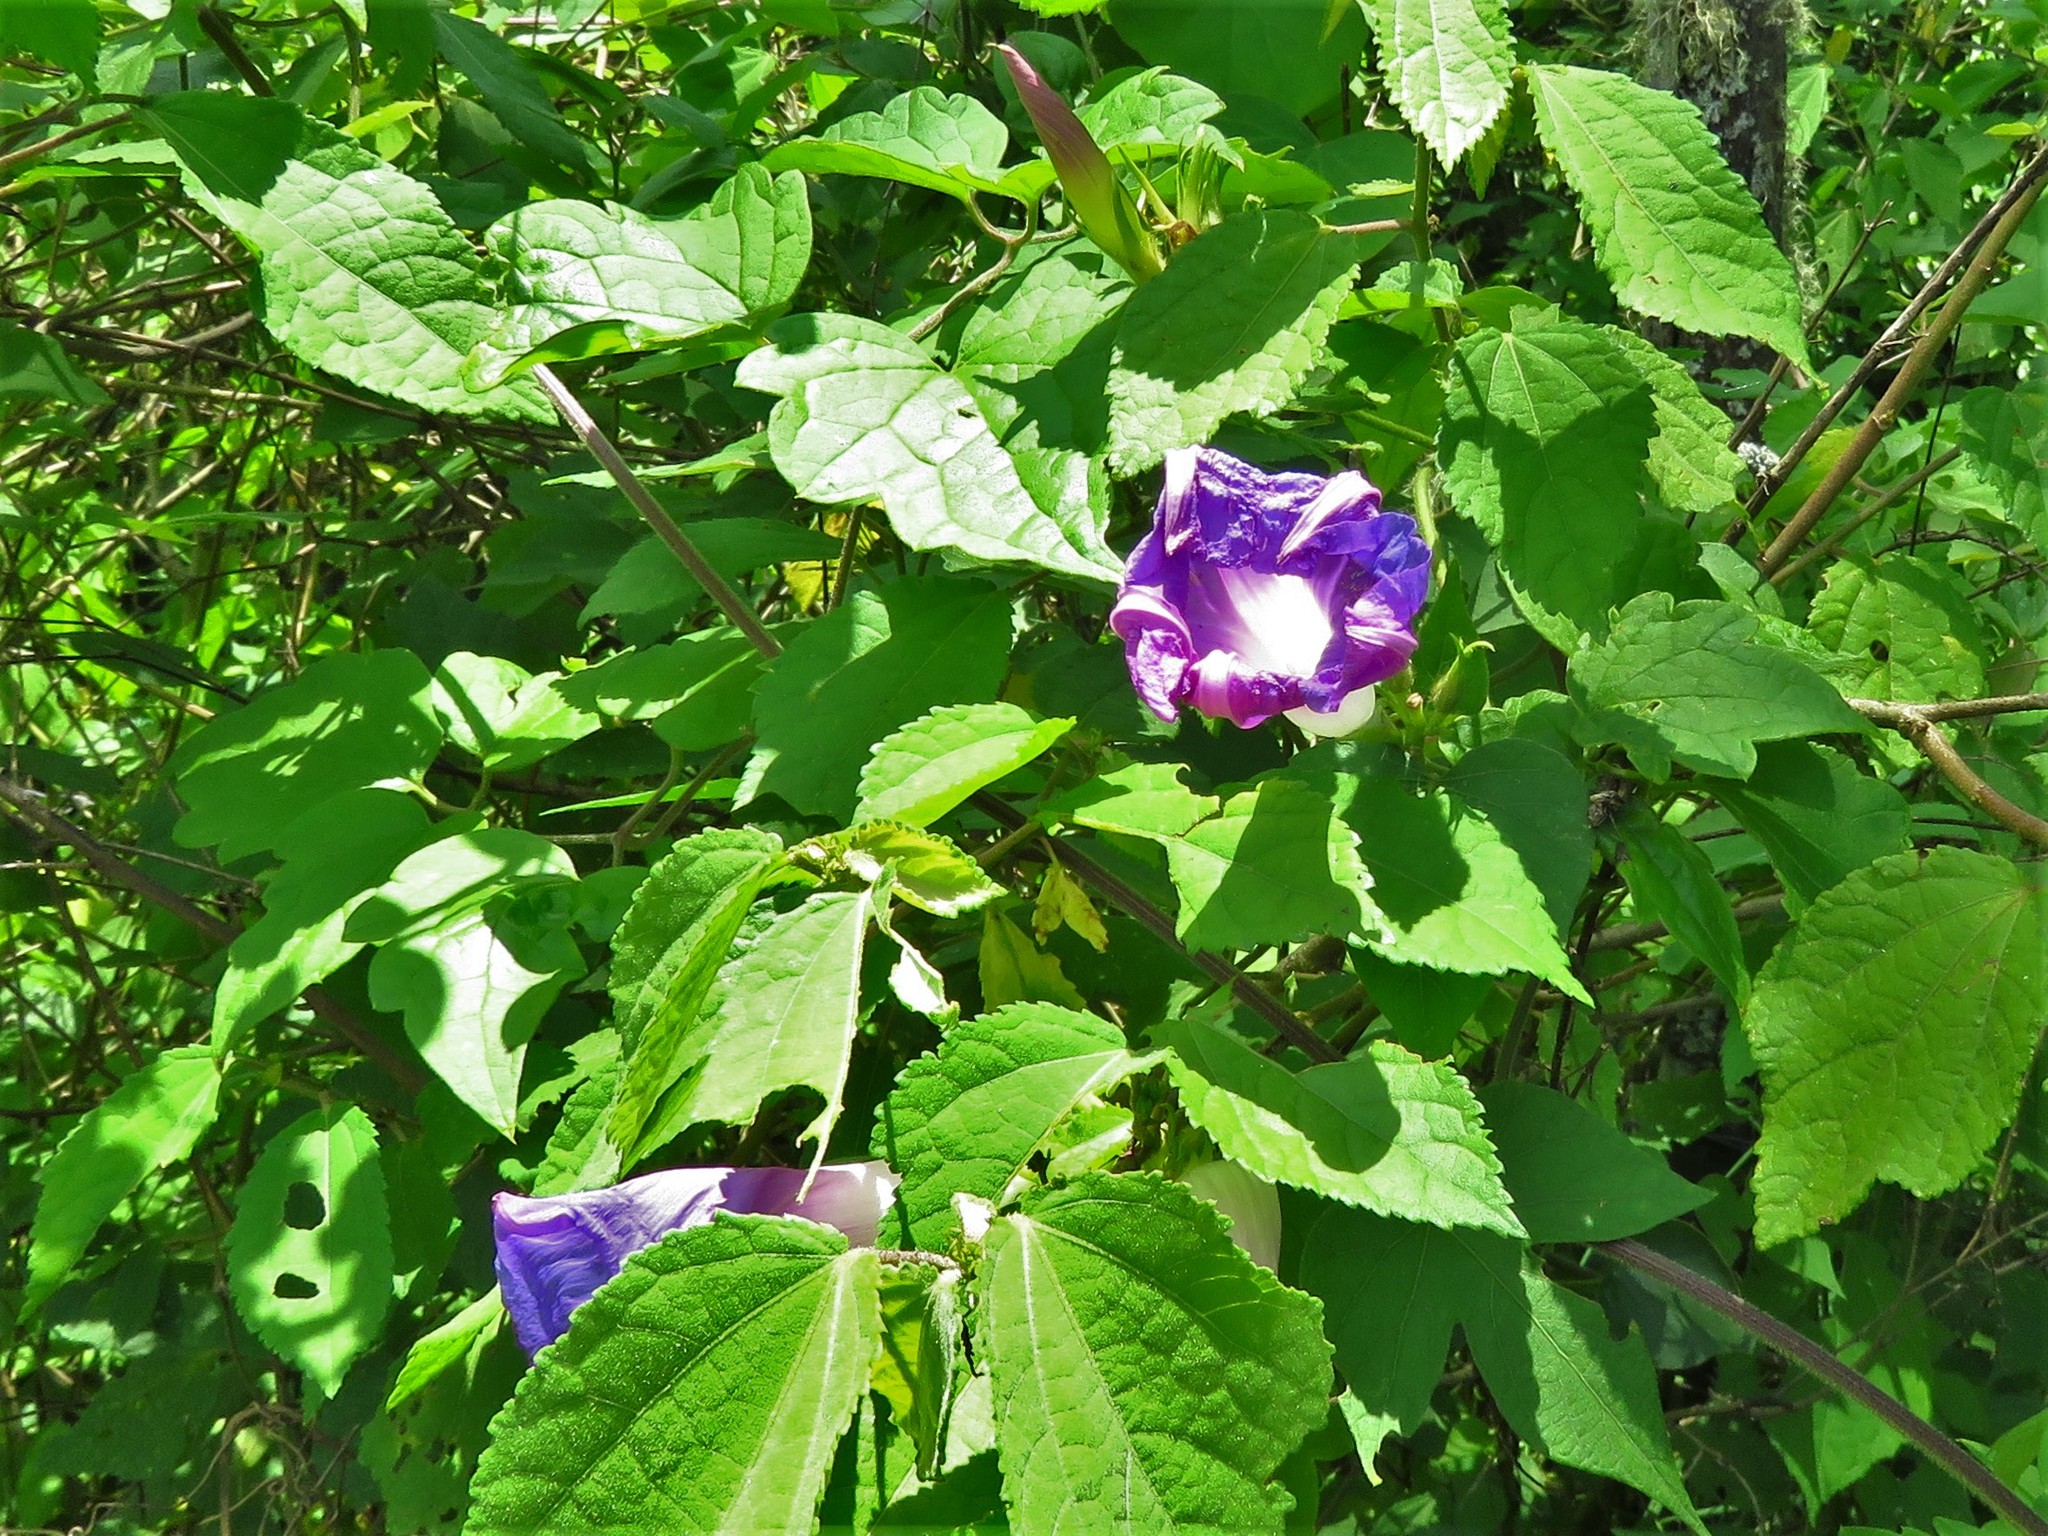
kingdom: Plantae
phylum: Tracheophyta
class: Magnoliopsida
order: Solanales
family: Convolvulaceae
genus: Ipomoea
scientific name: Ipomoea indica
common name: Blue dawnflower
